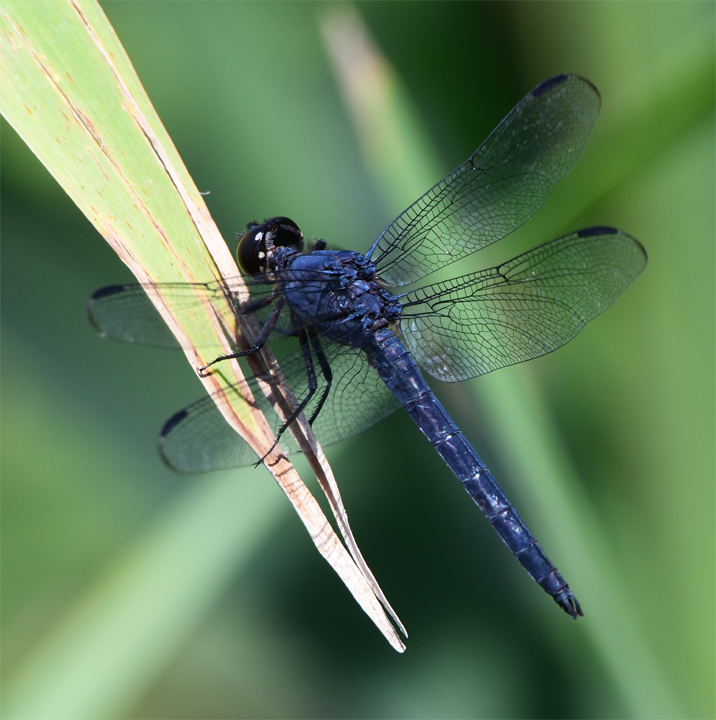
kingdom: Animalia
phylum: Arthropoda
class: Insecta
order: Odonata
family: Libellulidae
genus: Libellula
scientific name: Libellula incesta
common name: Slaty skimmer
